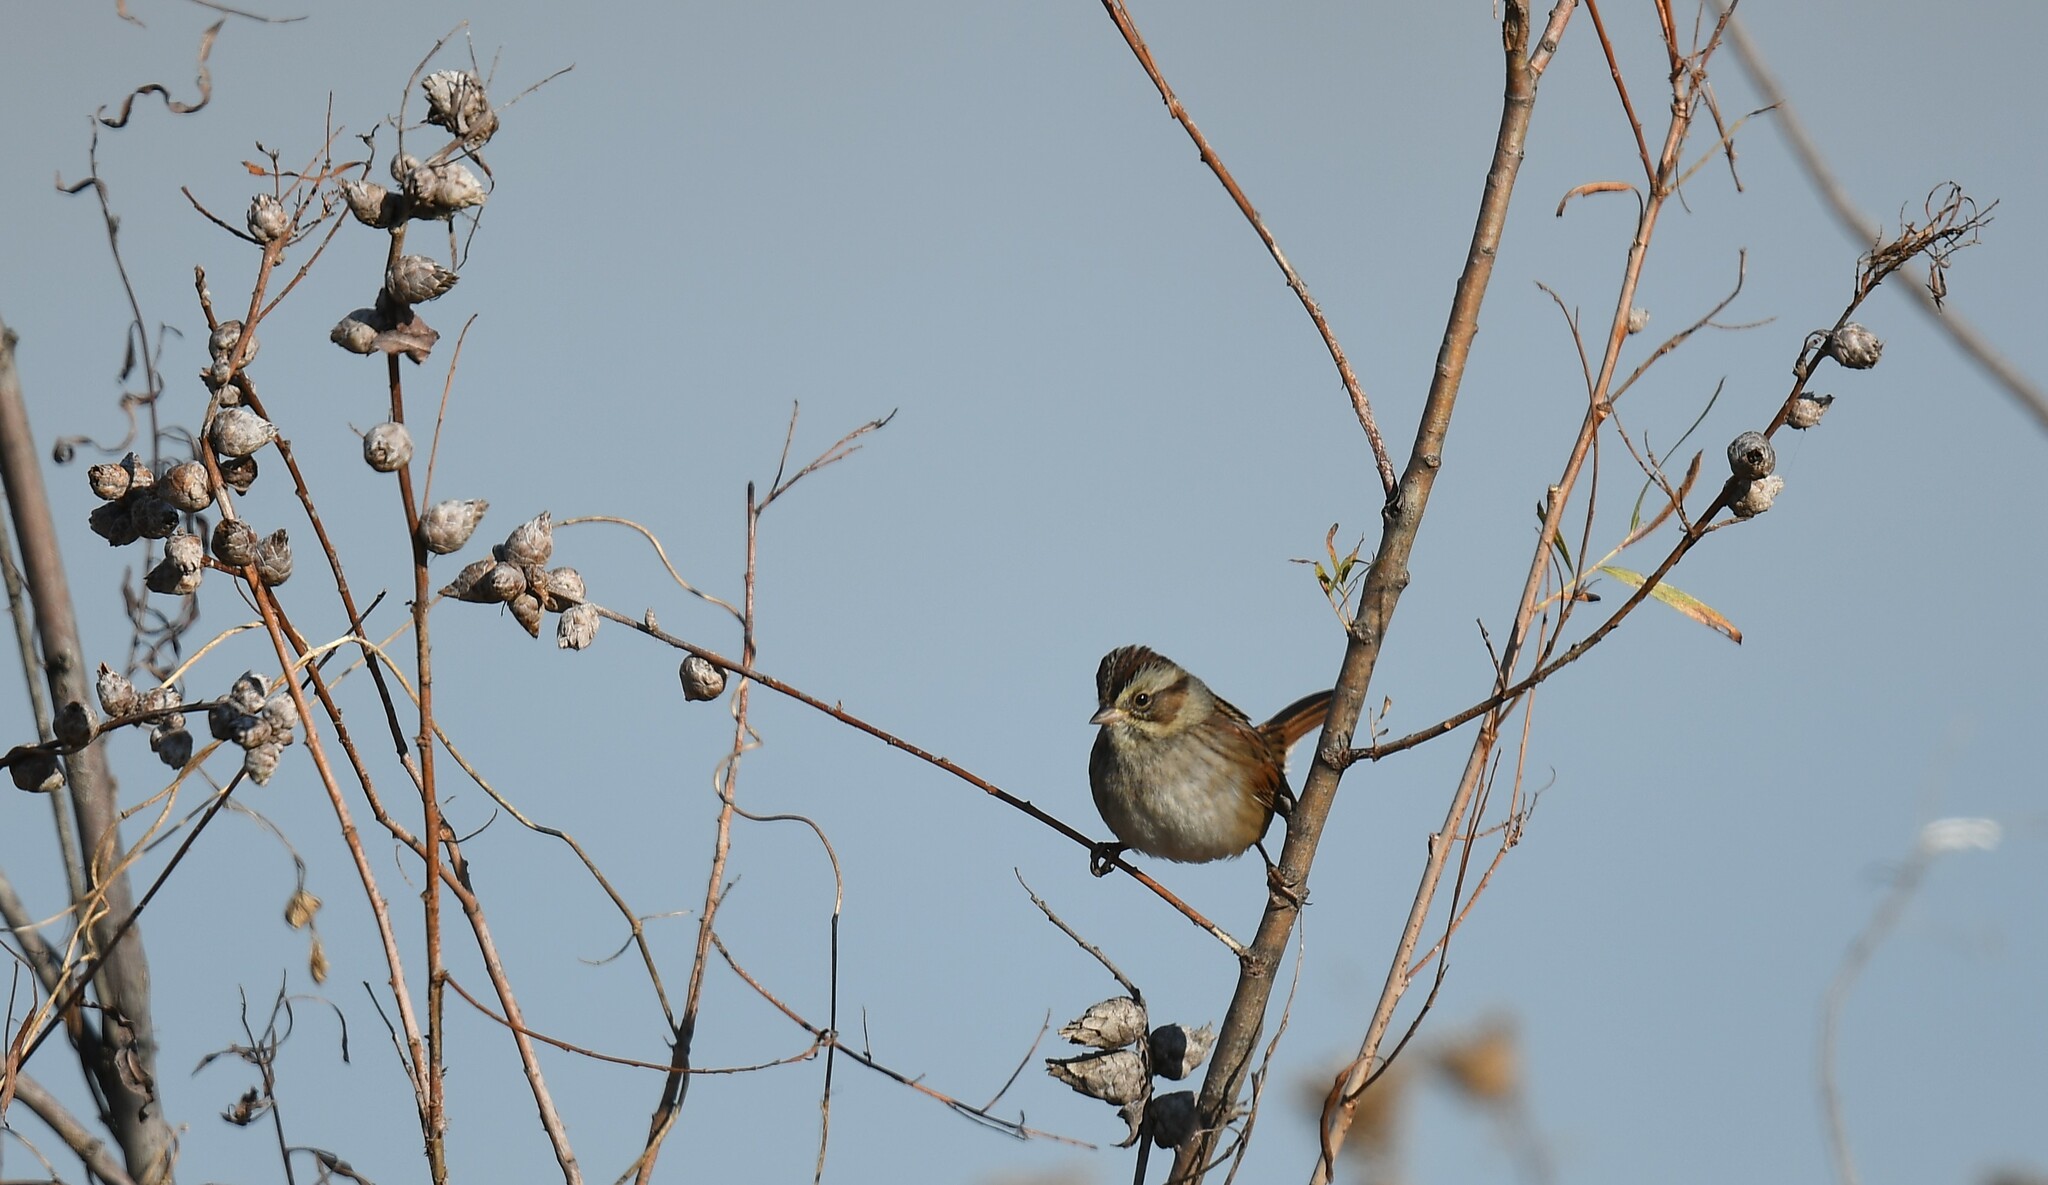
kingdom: Animalia
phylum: Chordata
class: Aves
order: Passeriformes
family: Passerellidae
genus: Melospiza
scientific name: Melospiza georgiana
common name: Swamp sparrow
